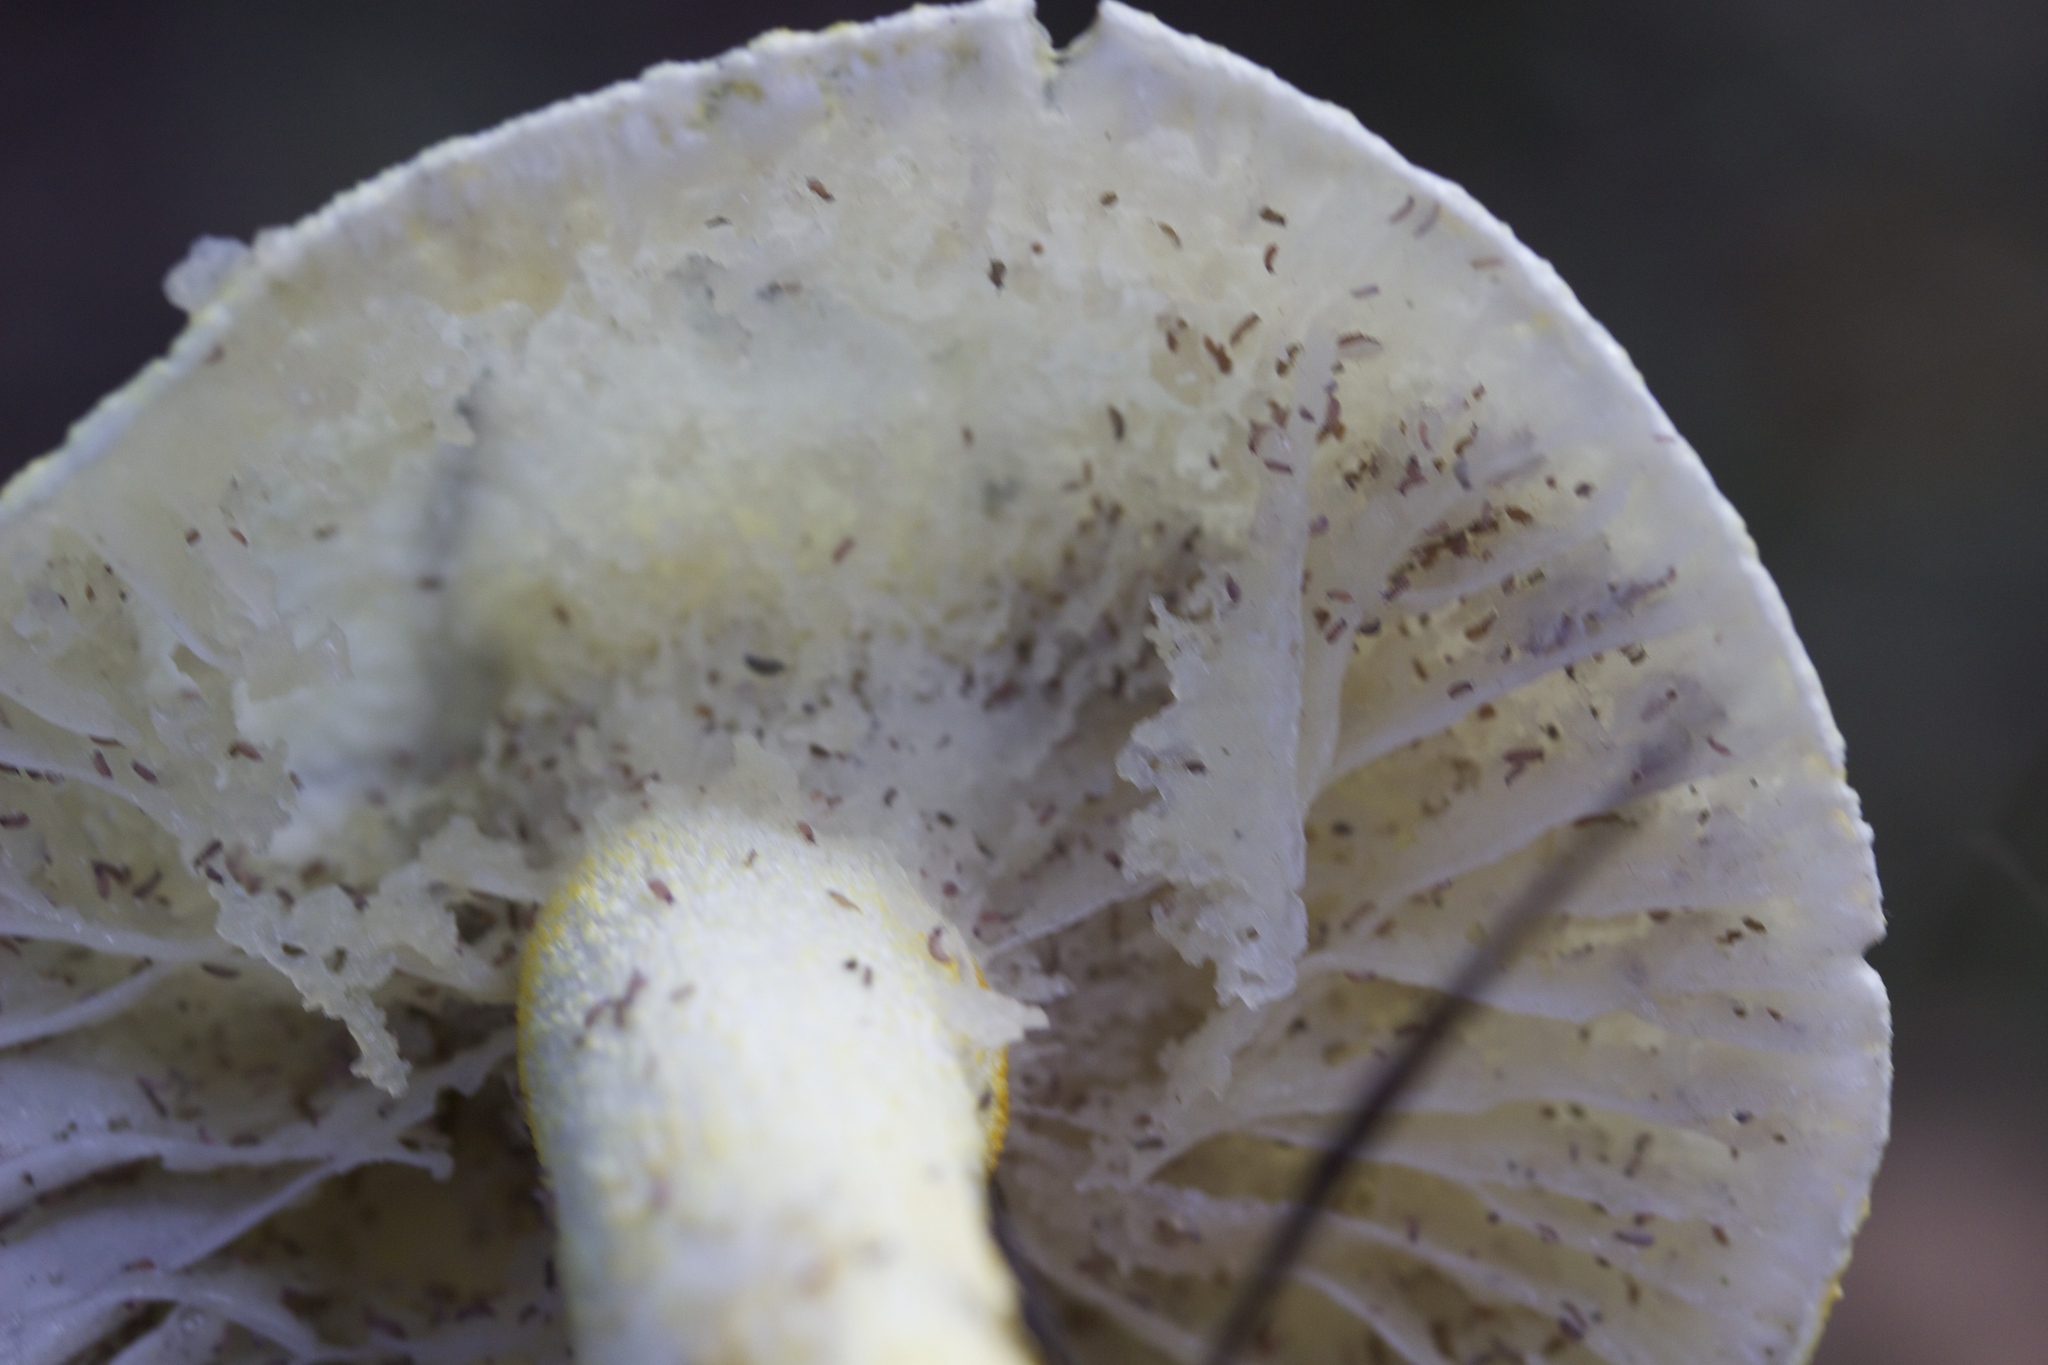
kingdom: Fungi
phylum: Basidiomycota
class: Agaricomycetes
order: Agaricales
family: Hygrophoraceae
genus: Hygrophorus
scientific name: Hygrophorus chrysodon
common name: Gold flecked woodwax
